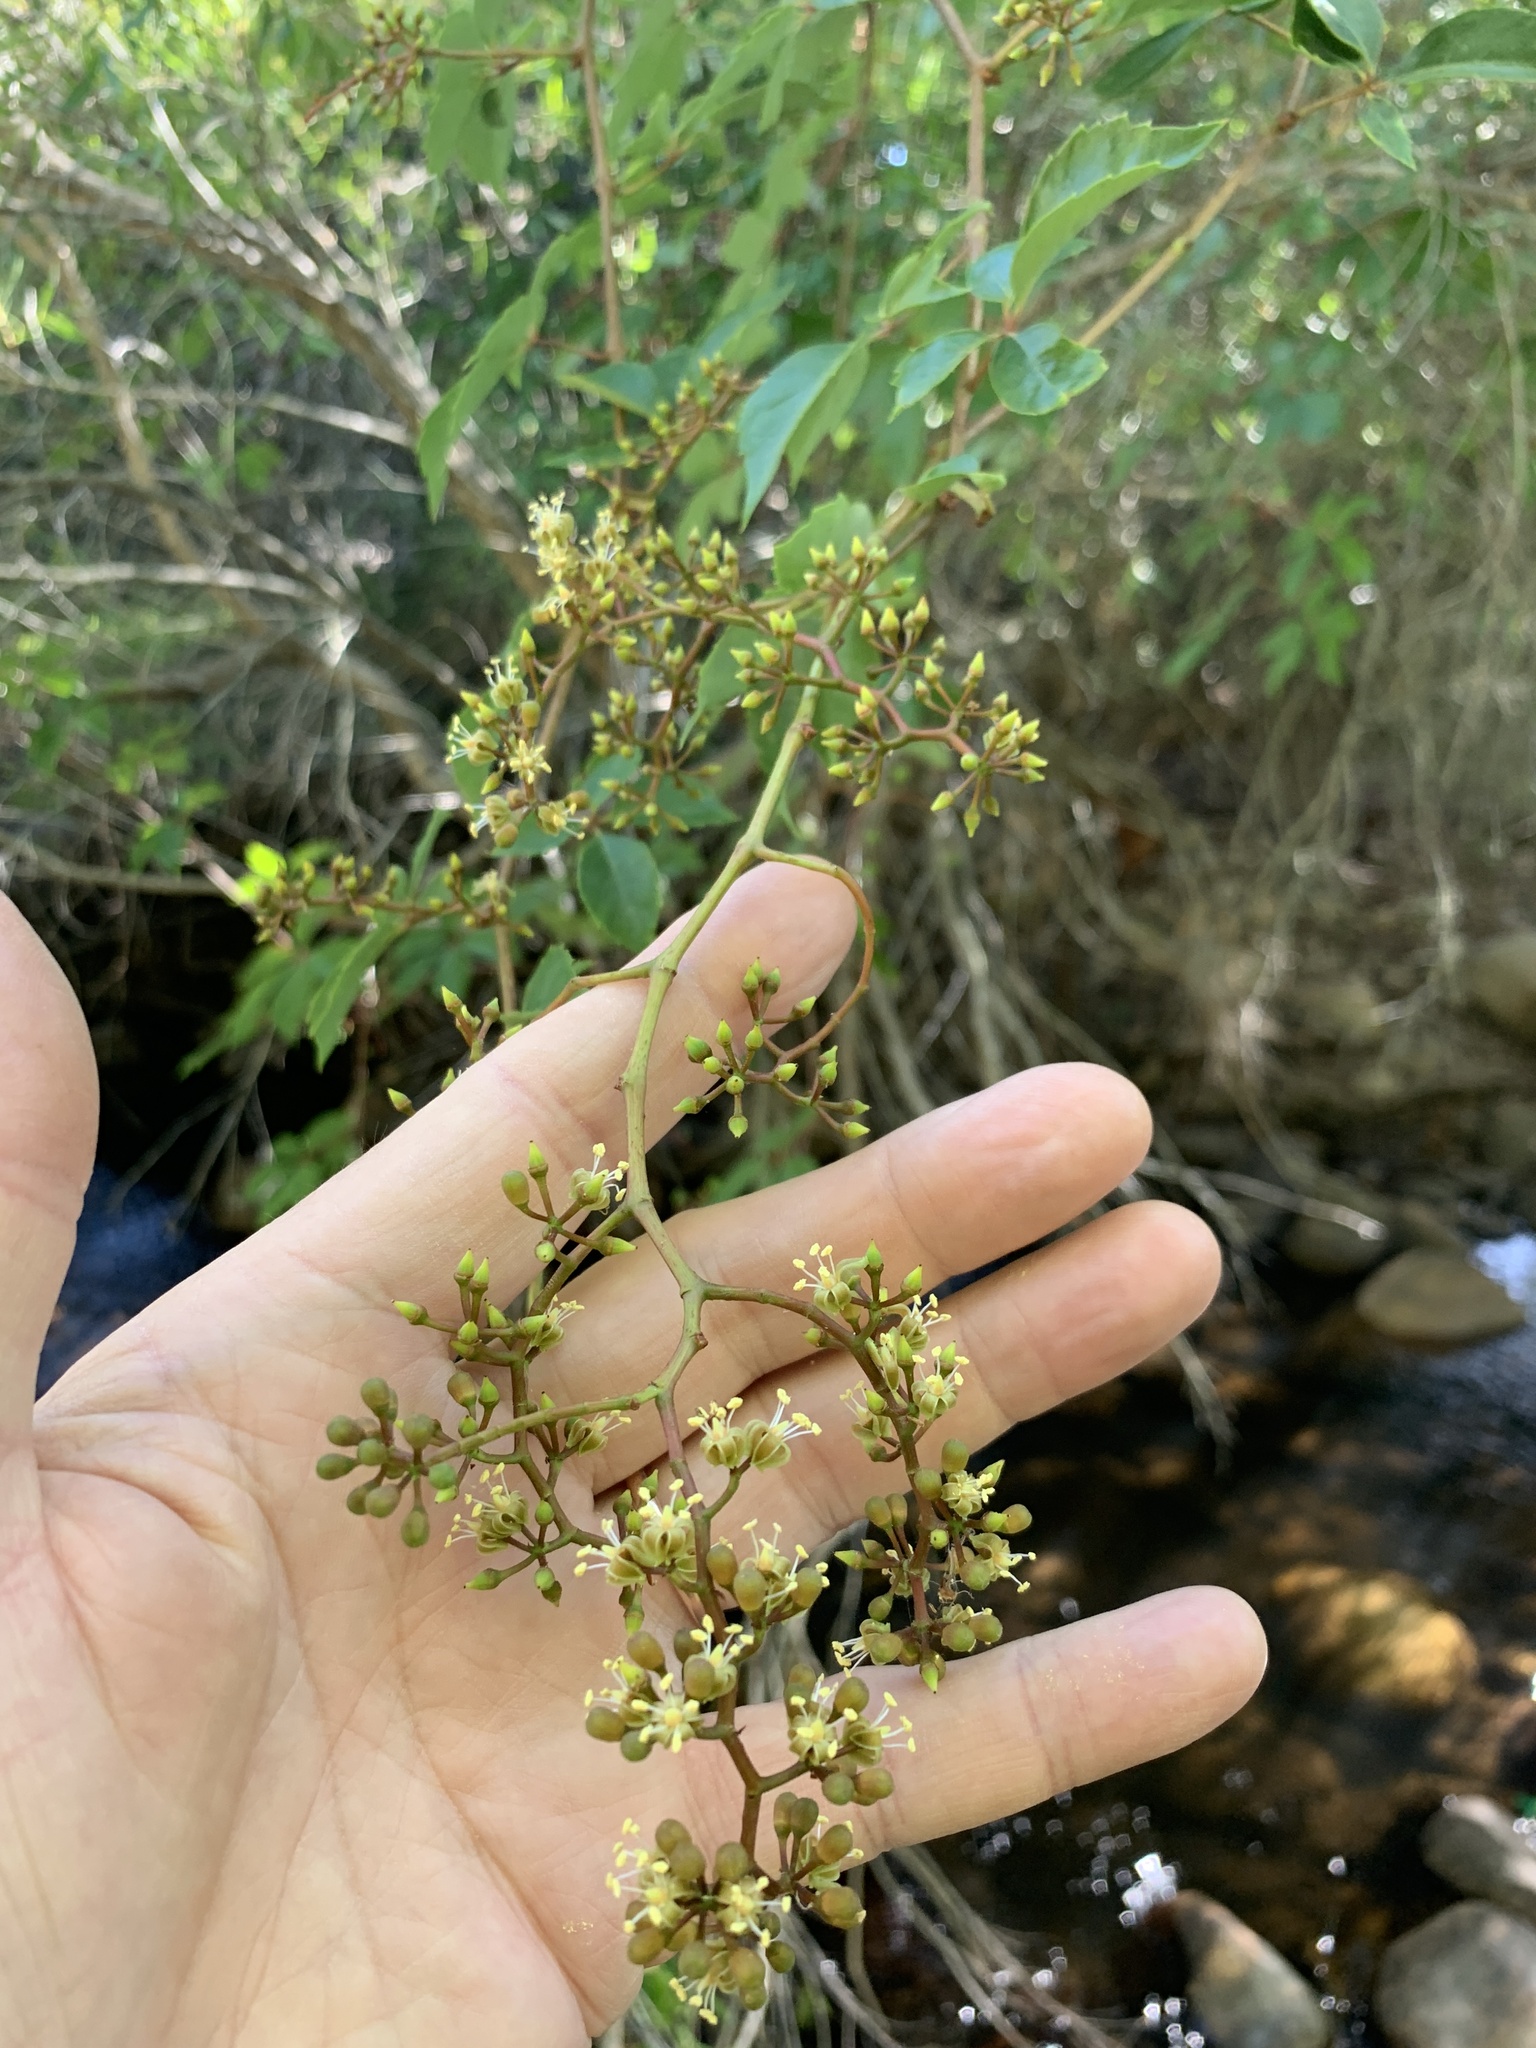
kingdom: Plantae
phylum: Tracheophyta
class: Magnoliopsida
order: Vitales
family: Vitaceae
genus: Parthenocissus
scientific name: Parthenocissus quinquefolia
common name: Virginia-creeper
